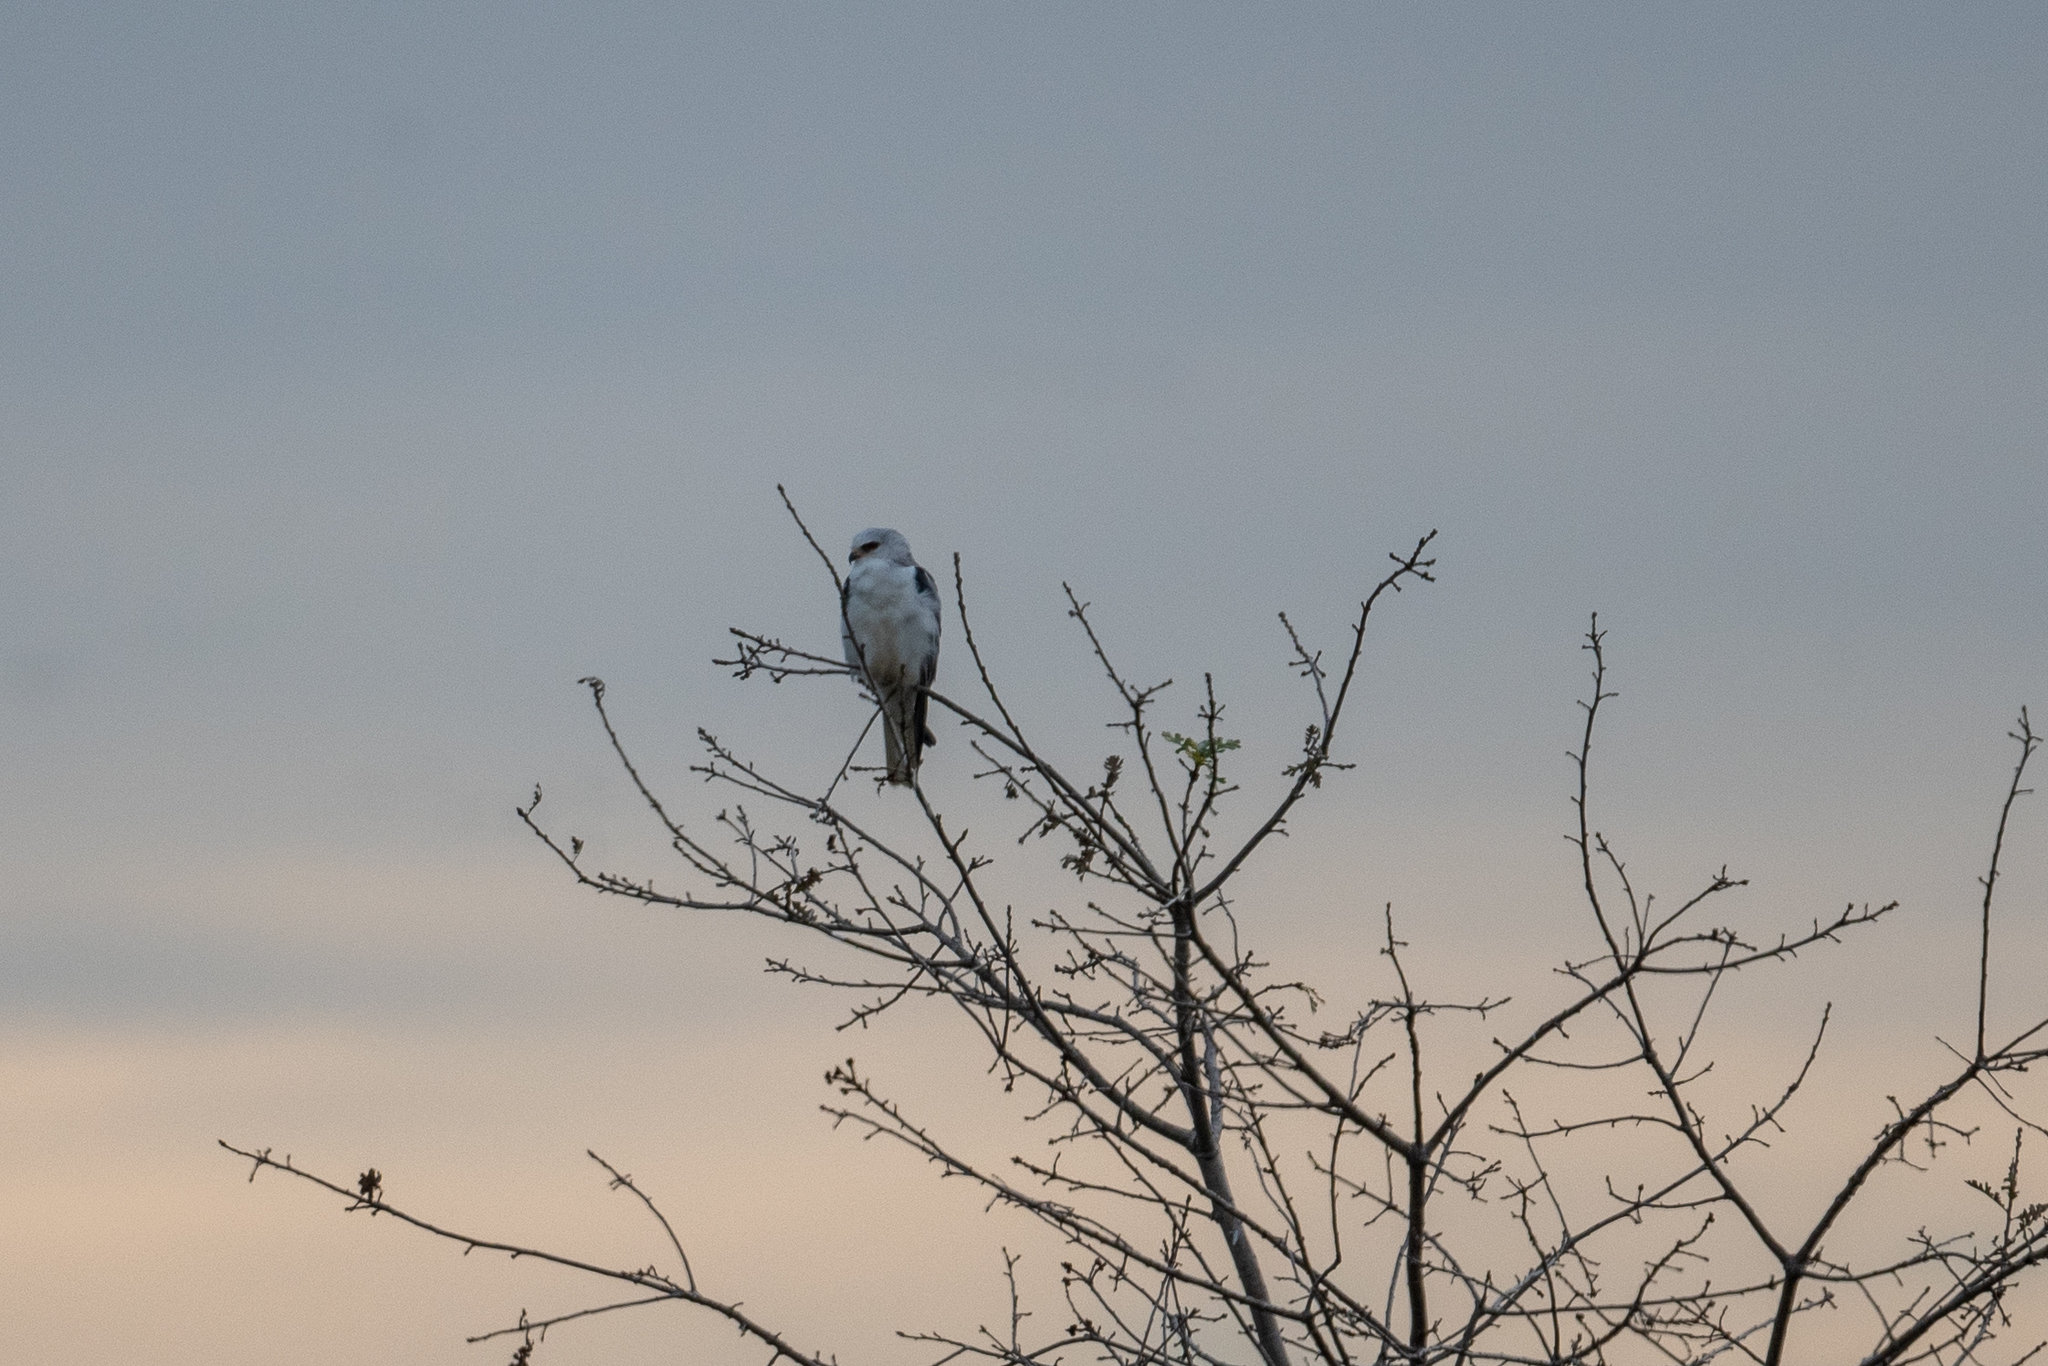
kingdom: Animalia
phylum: Chordata
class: Aves
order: Accipitriformes
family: Accipitridae
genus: Elanus
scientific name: Elanus leucurus
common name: White-tailed kite
